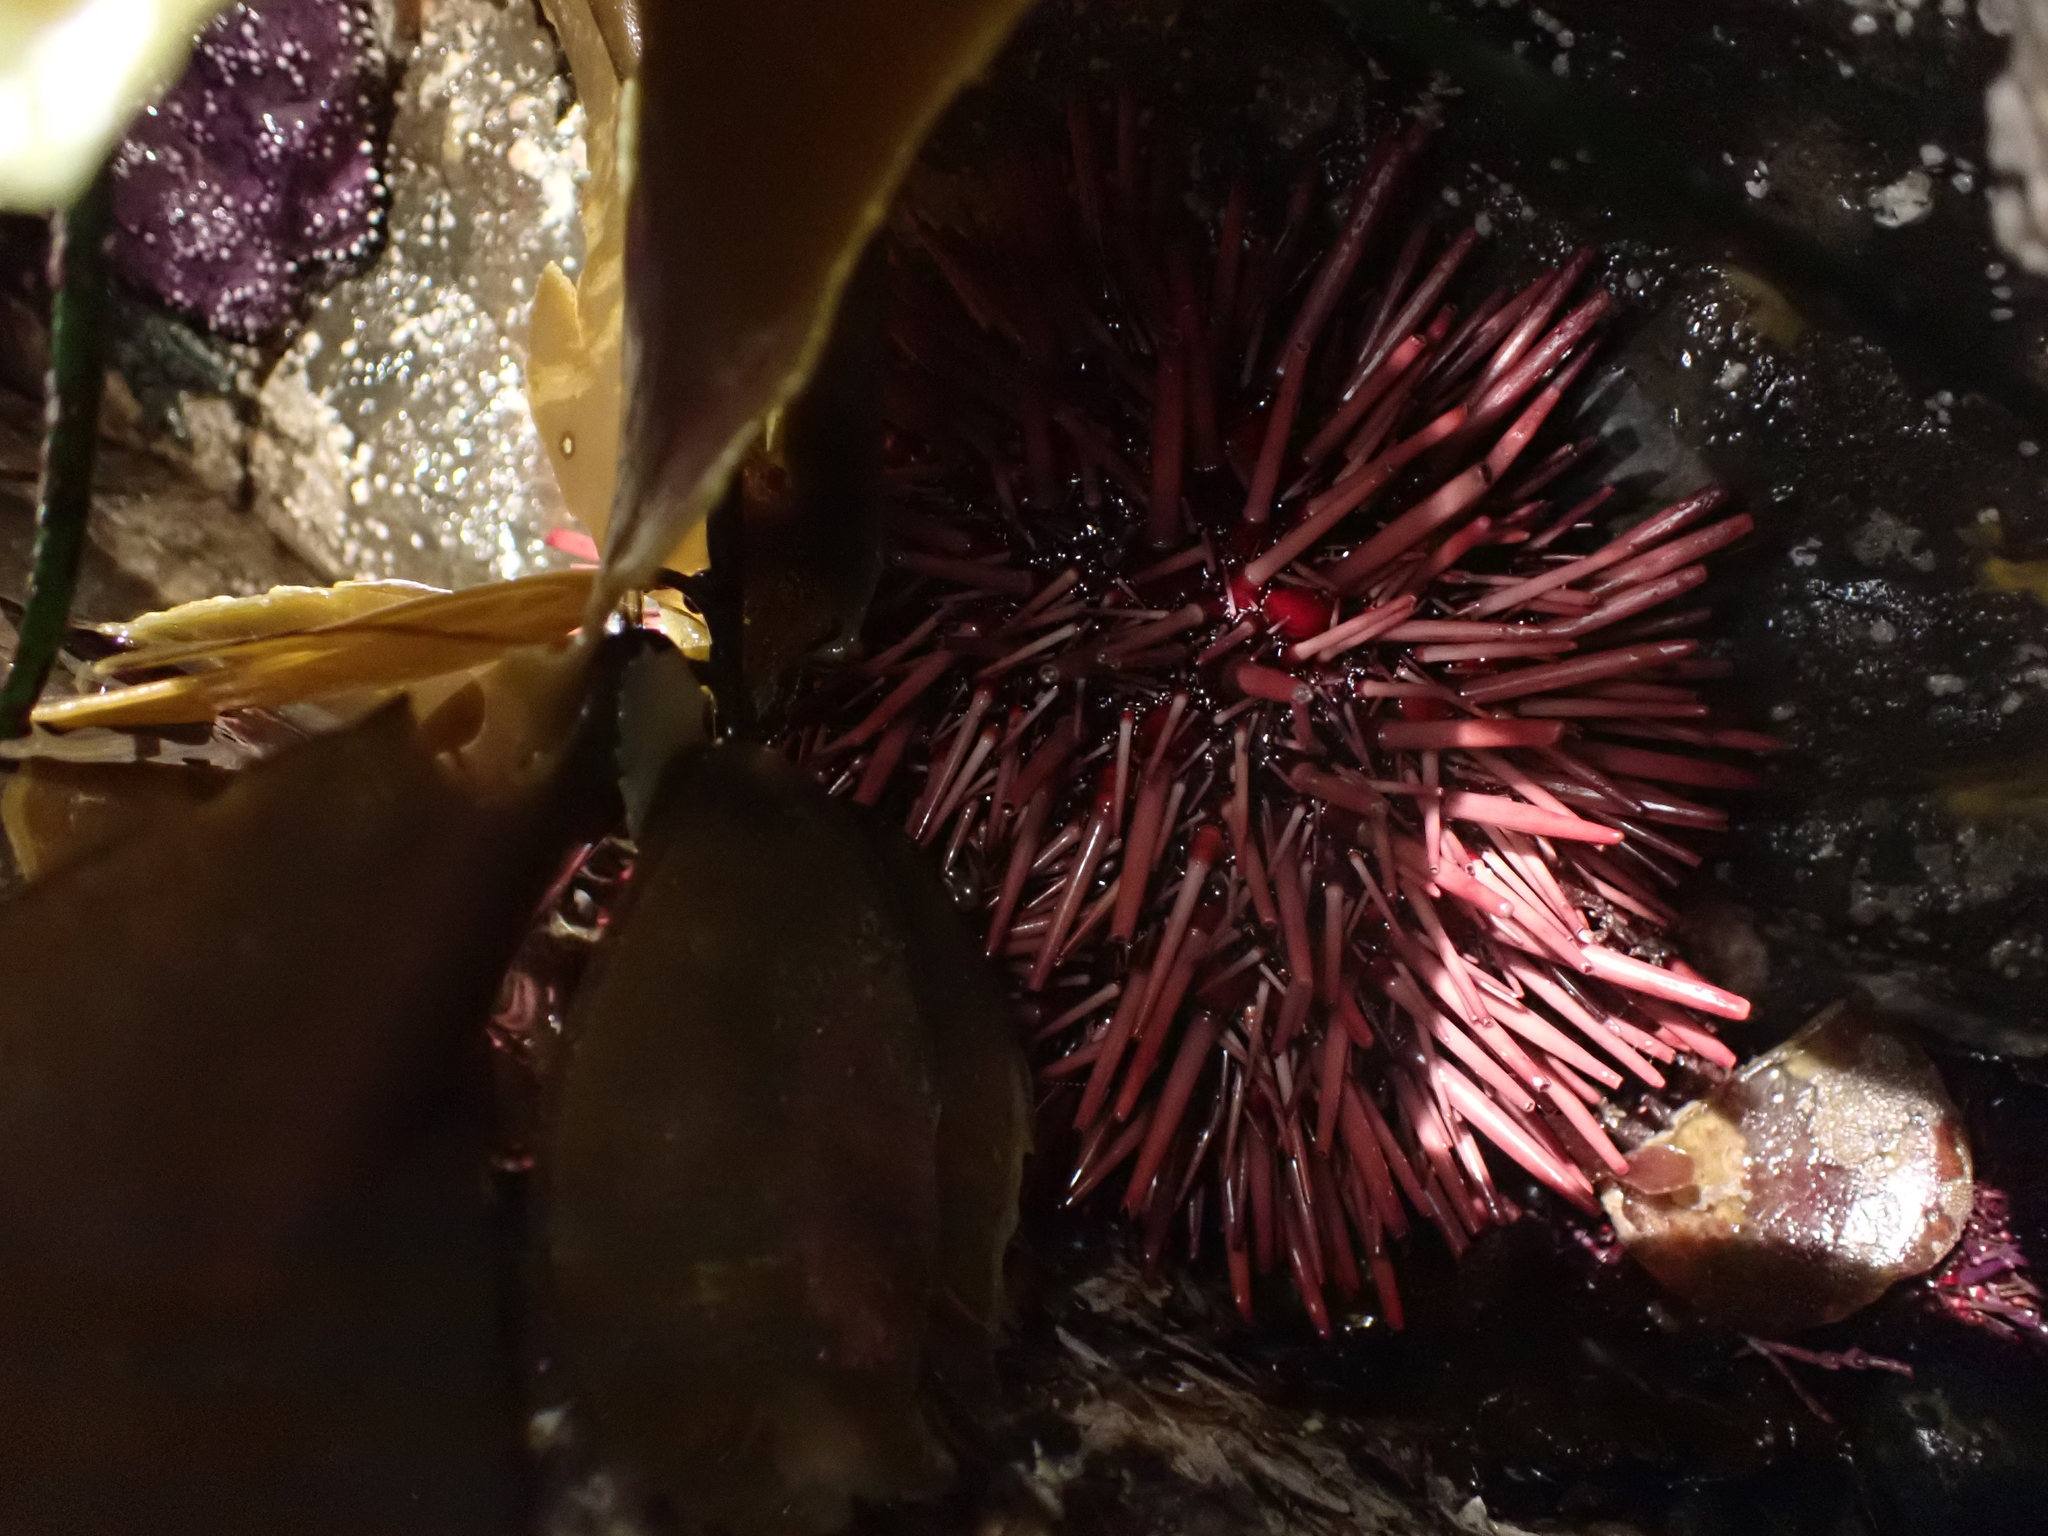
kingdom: Animalia
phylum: Echinodermata
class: Echinoidea
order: Camarodonta
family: Strongylocentrotidae
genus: Mesocentrotus
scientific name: Mesocentrotus franciscanus
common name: Red sea urchin
